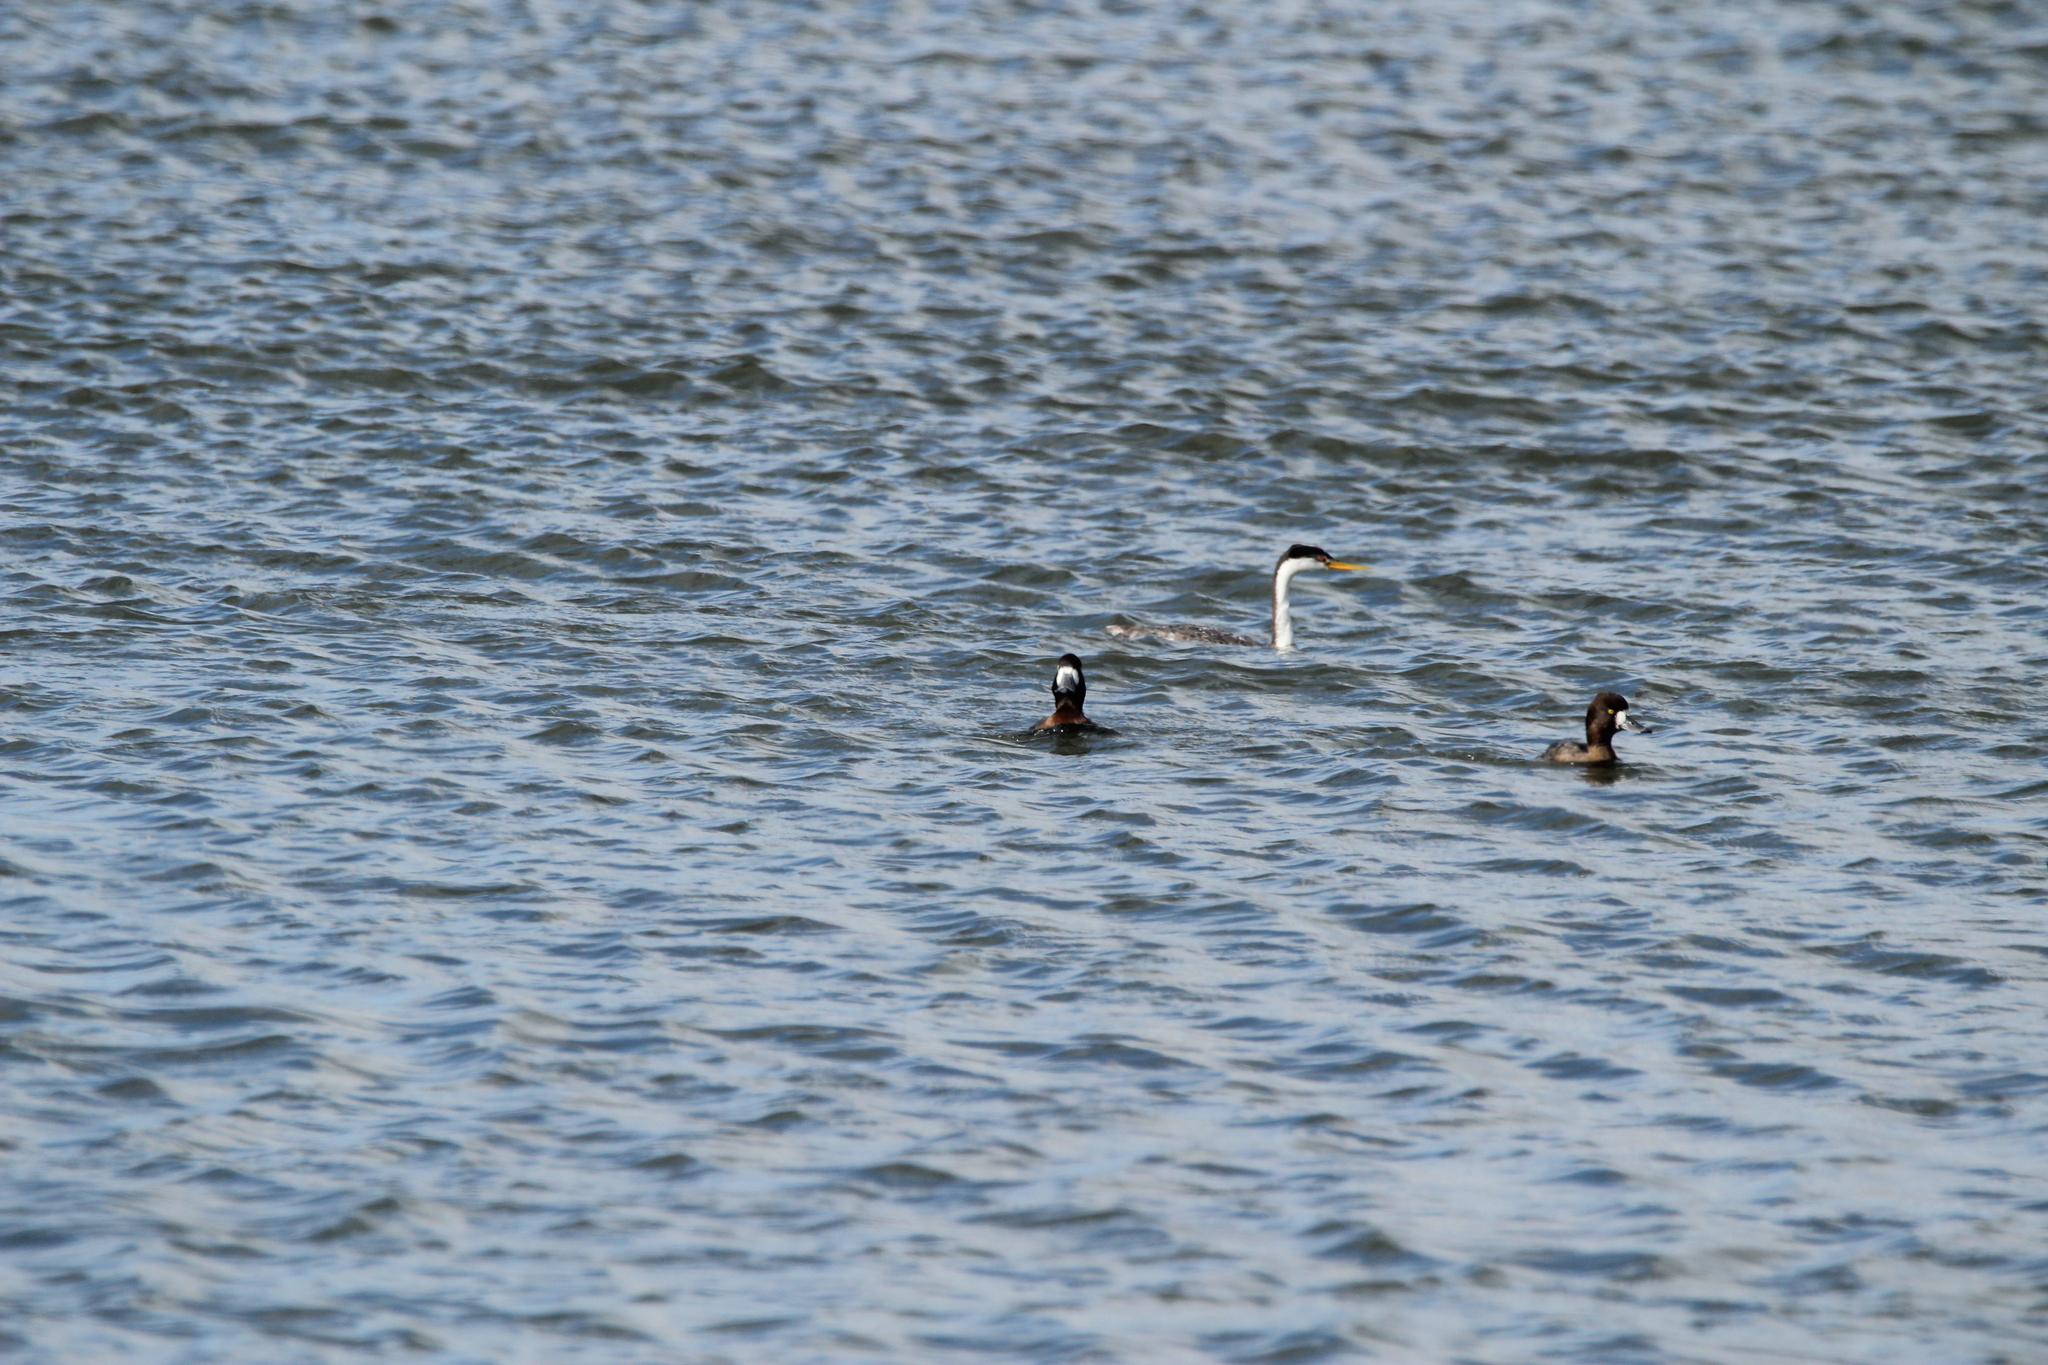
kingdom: Animalia
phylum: Chordata
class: Aves
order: Podicipediformes
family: Podicipedidae
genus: Aechmophorus
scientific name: Aechmophorus clarkii
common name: Clark's grebe
